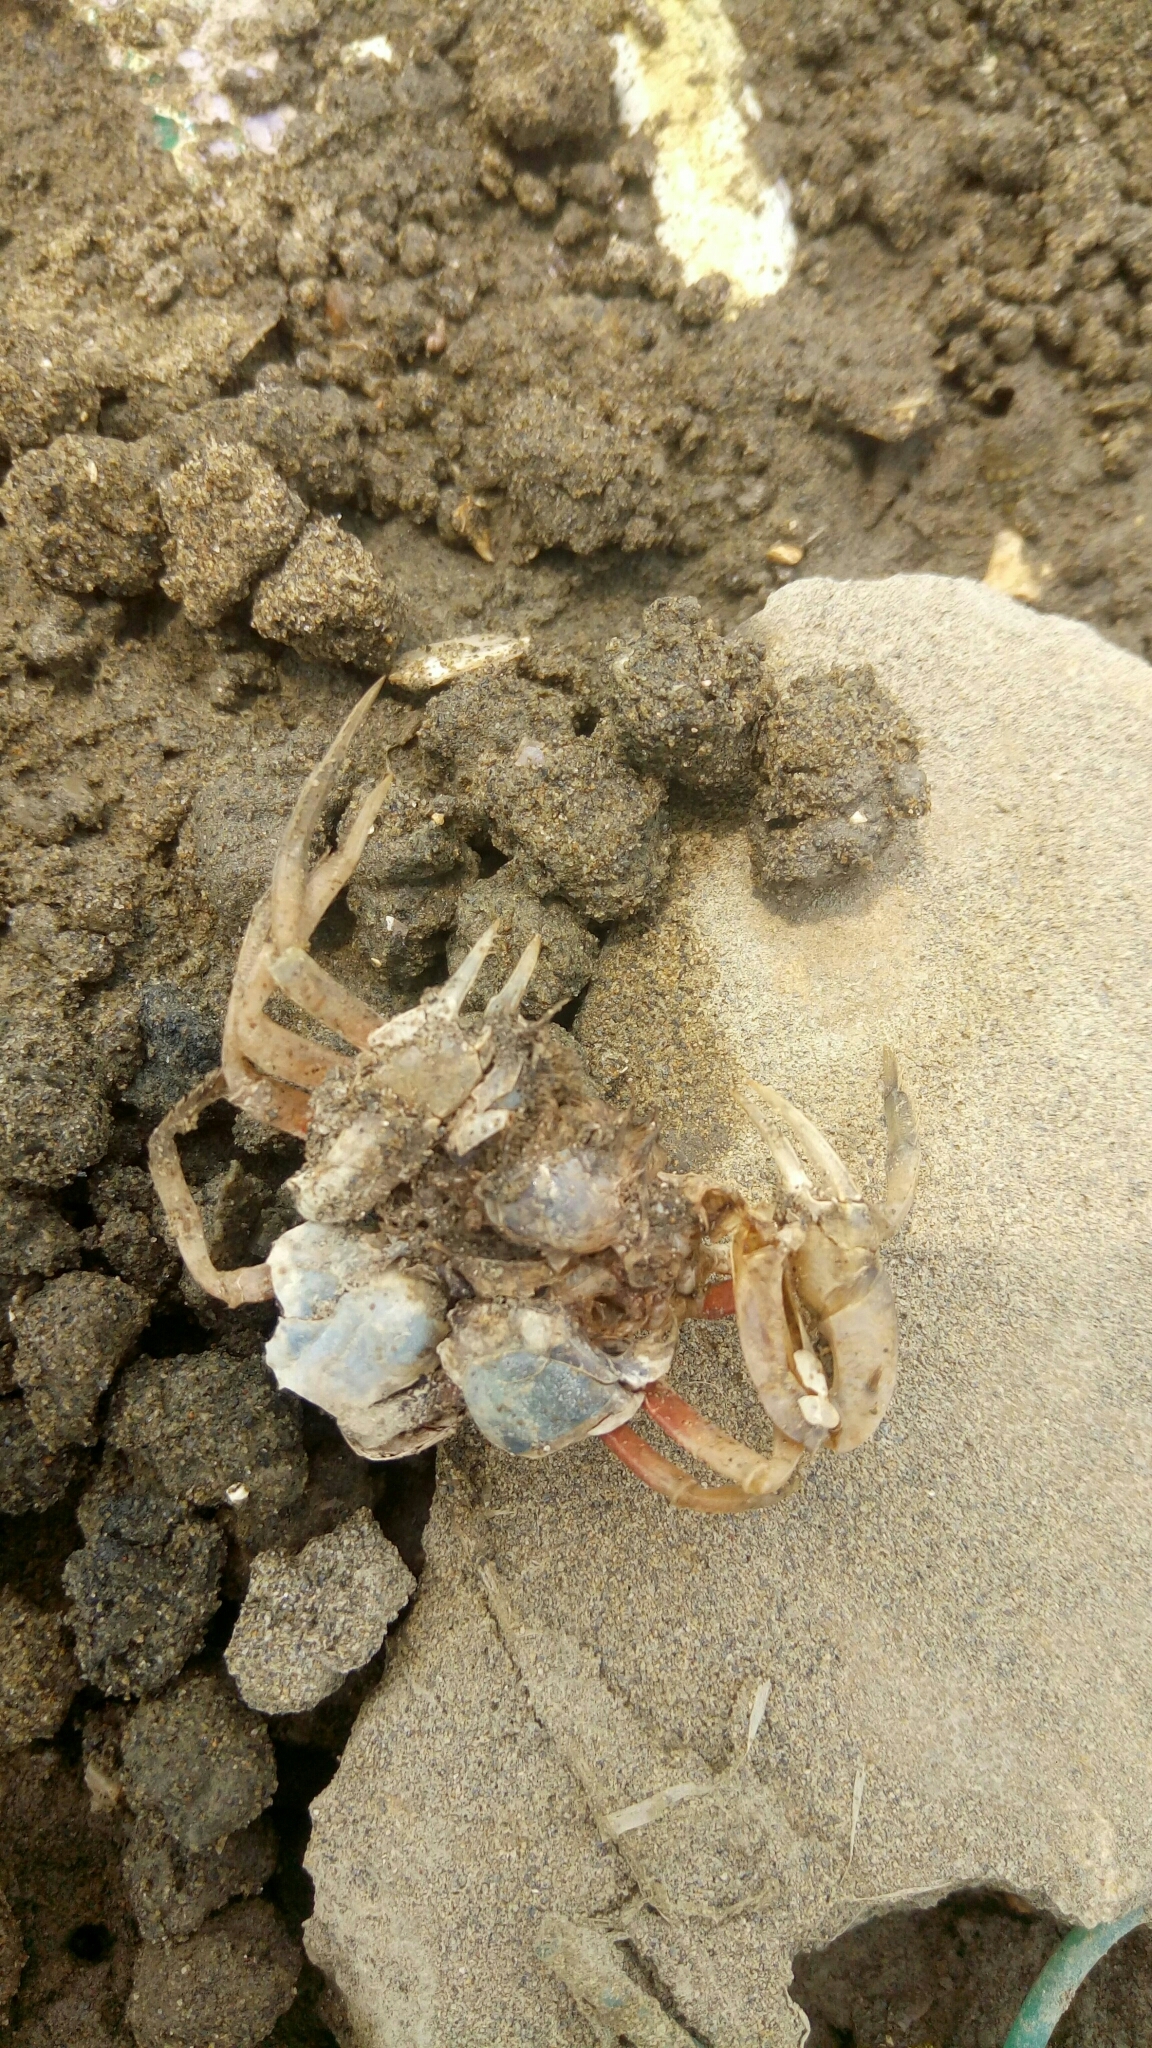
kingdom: Animalia
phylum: Arthropoda
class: Malacostraca
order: Decapoda
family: Mictyridae
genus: Mictyris
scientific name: Mictyris brevidactylus
